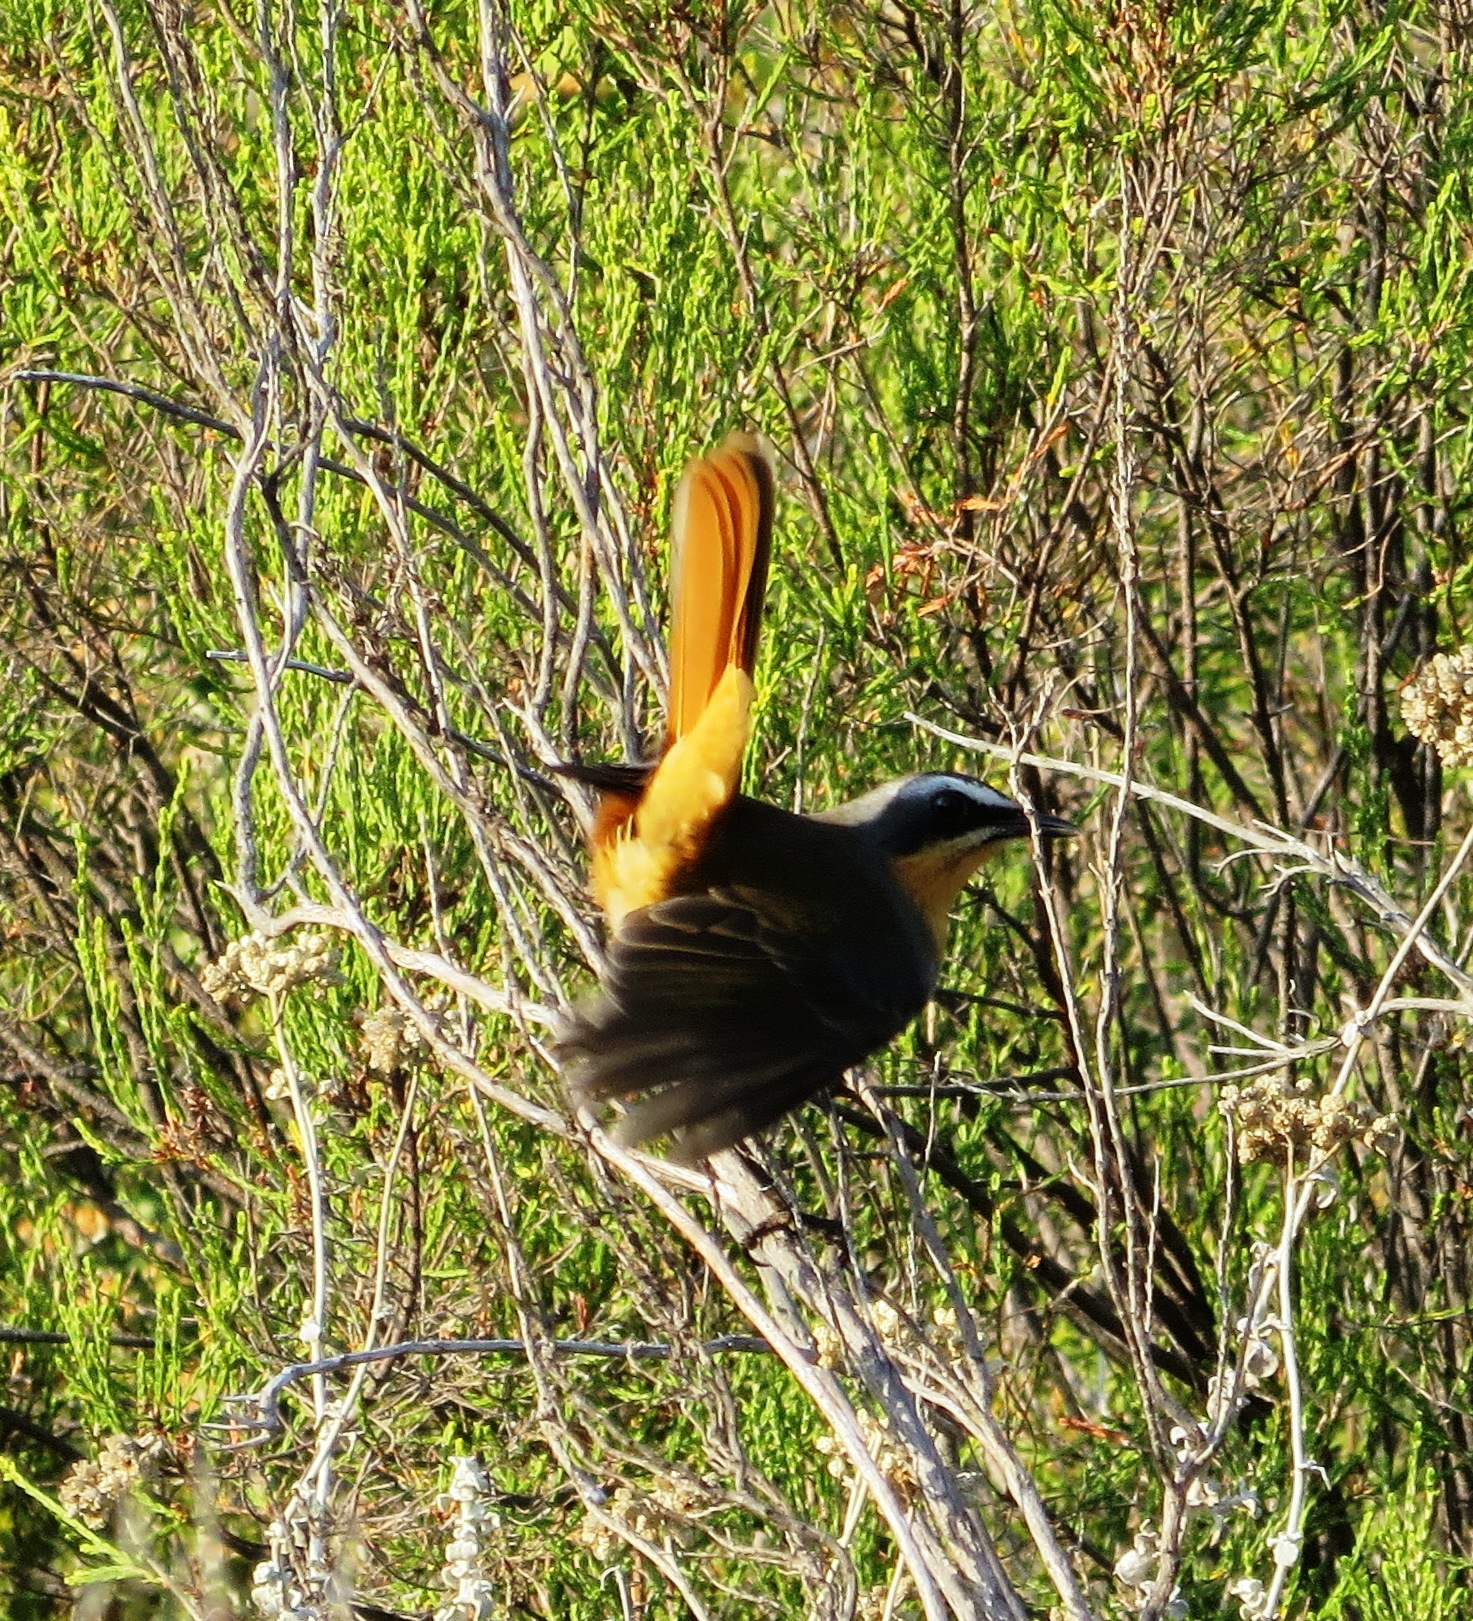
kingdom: Animalia
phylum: Chordata
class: Aves
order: Passeriformes
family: Muscicapidae
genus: Cossypha
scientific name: Cossypha caffra
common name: Cape robin-chat
